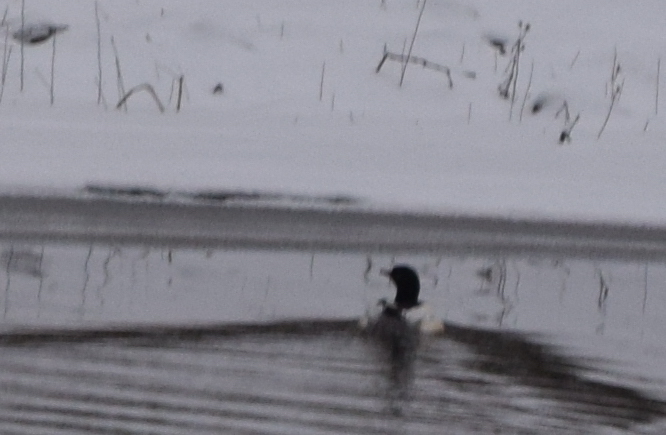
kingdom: Animalia
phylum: Chordata
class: Aves
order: Anseriformes
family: Anatidae
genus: Mergus
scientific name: Mergus merganser
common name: Common merganser
